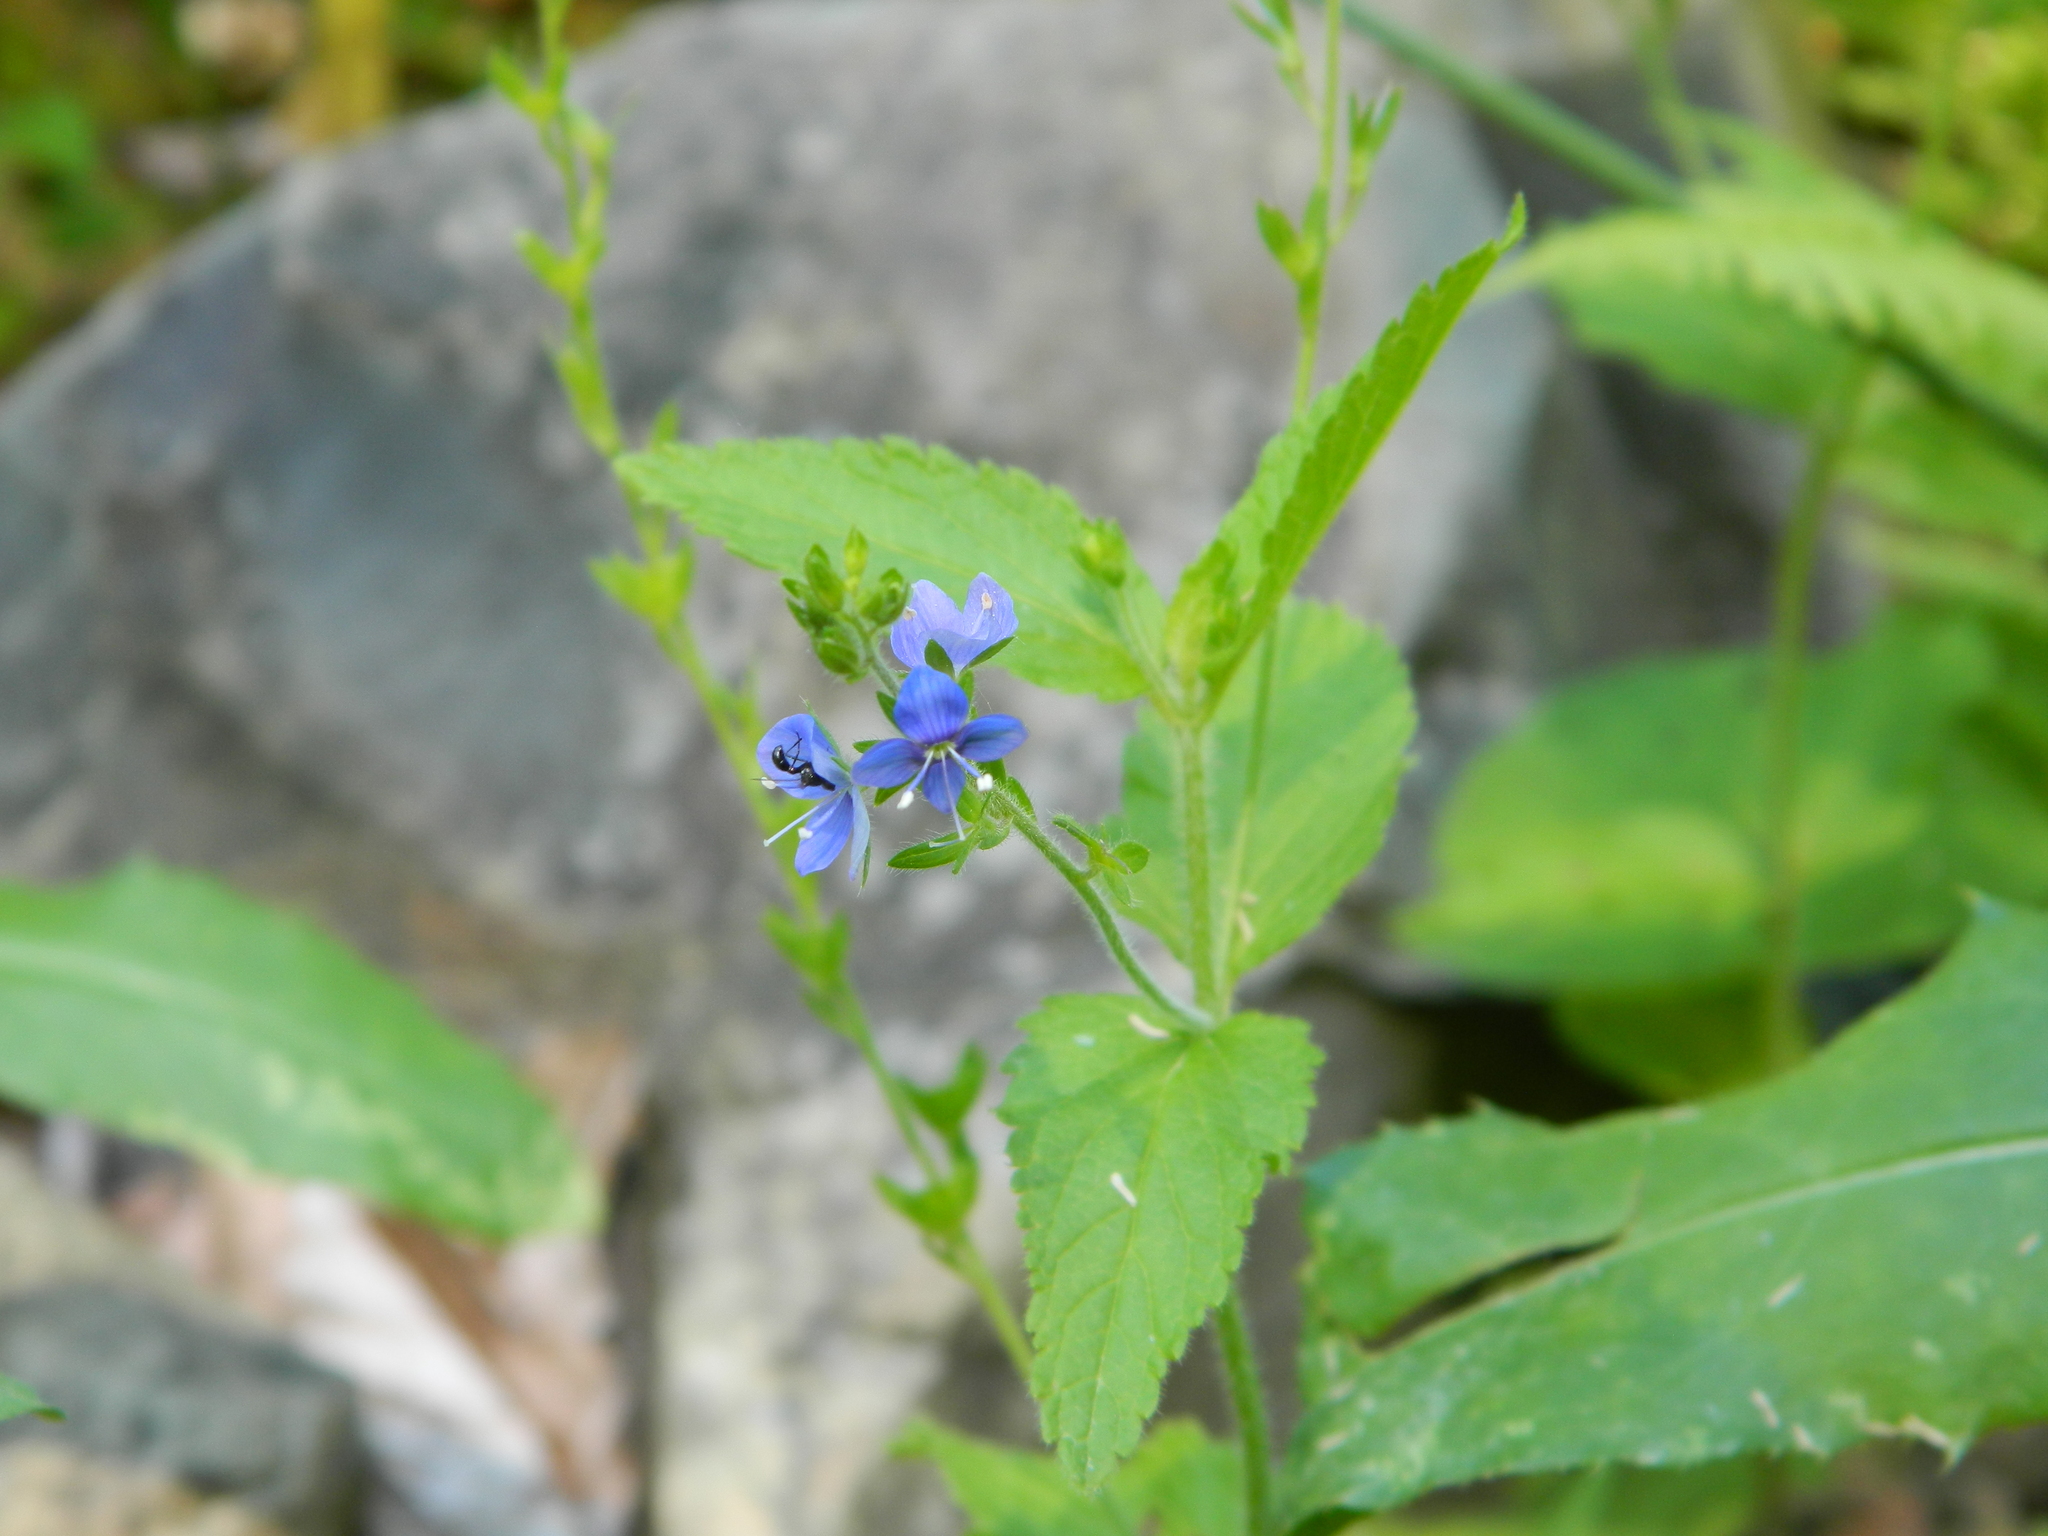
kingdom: Plantae
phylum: Tracheophyta
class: Magnoliopsida
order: Lamiales
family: Plantaginaceae
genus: Veronica
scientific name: Veronica magna
